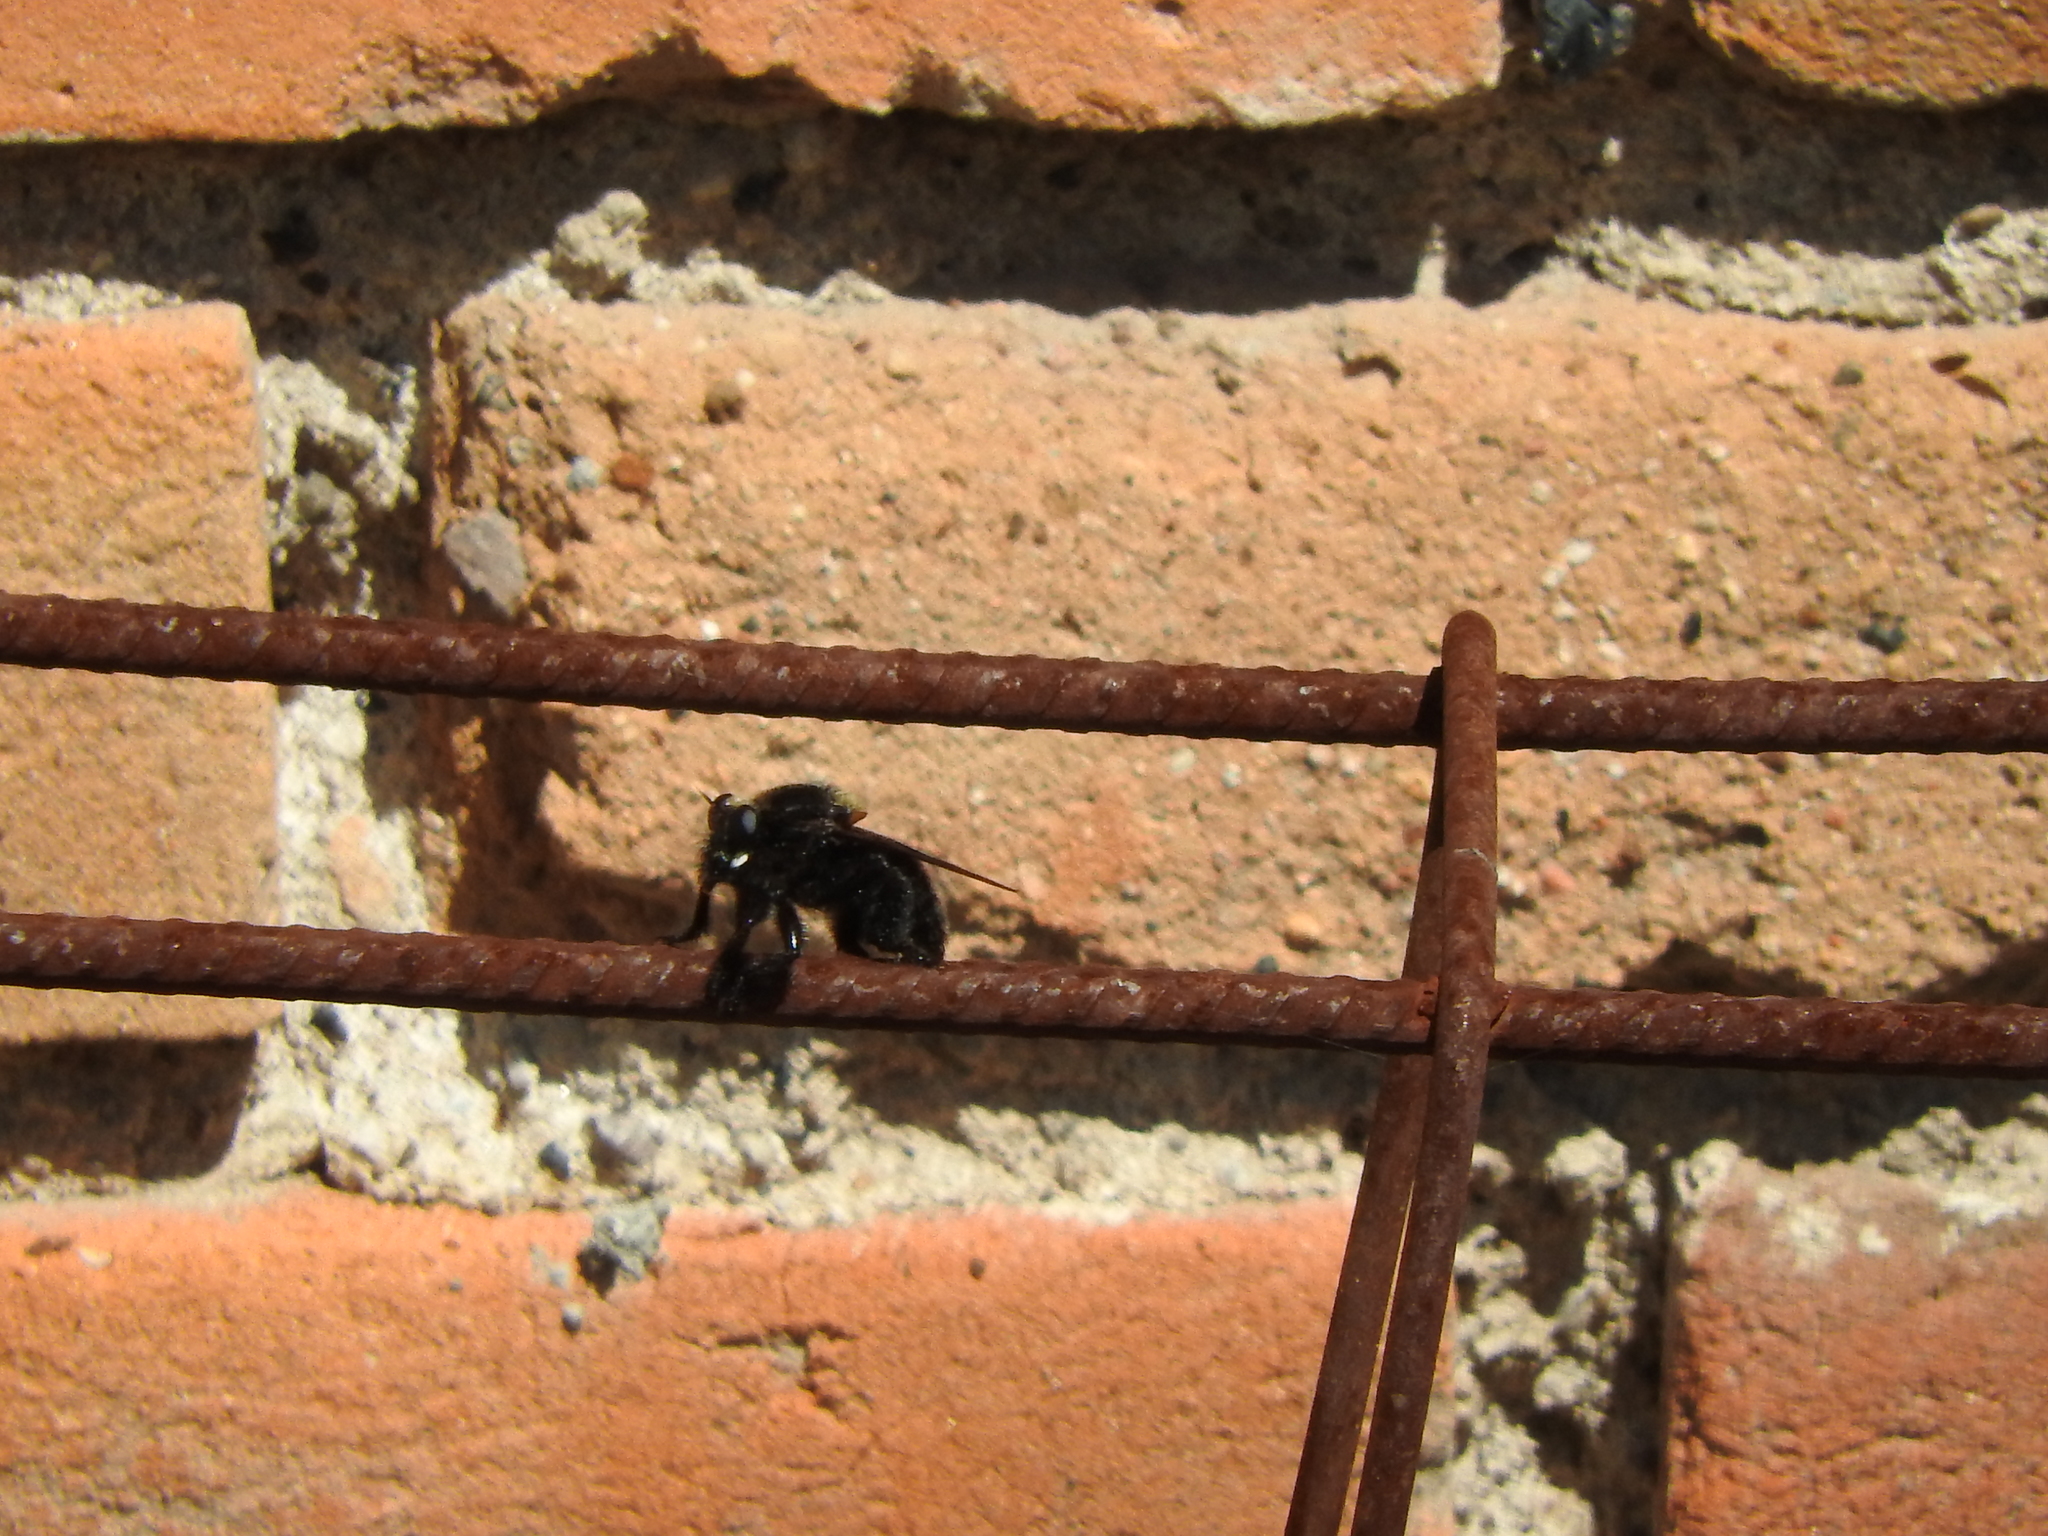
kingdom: Animalia
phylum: Arthropoda
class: Insecta
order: Diptera
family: Asilidae
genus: Mallophora
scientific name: Mallophora leschenaultii
